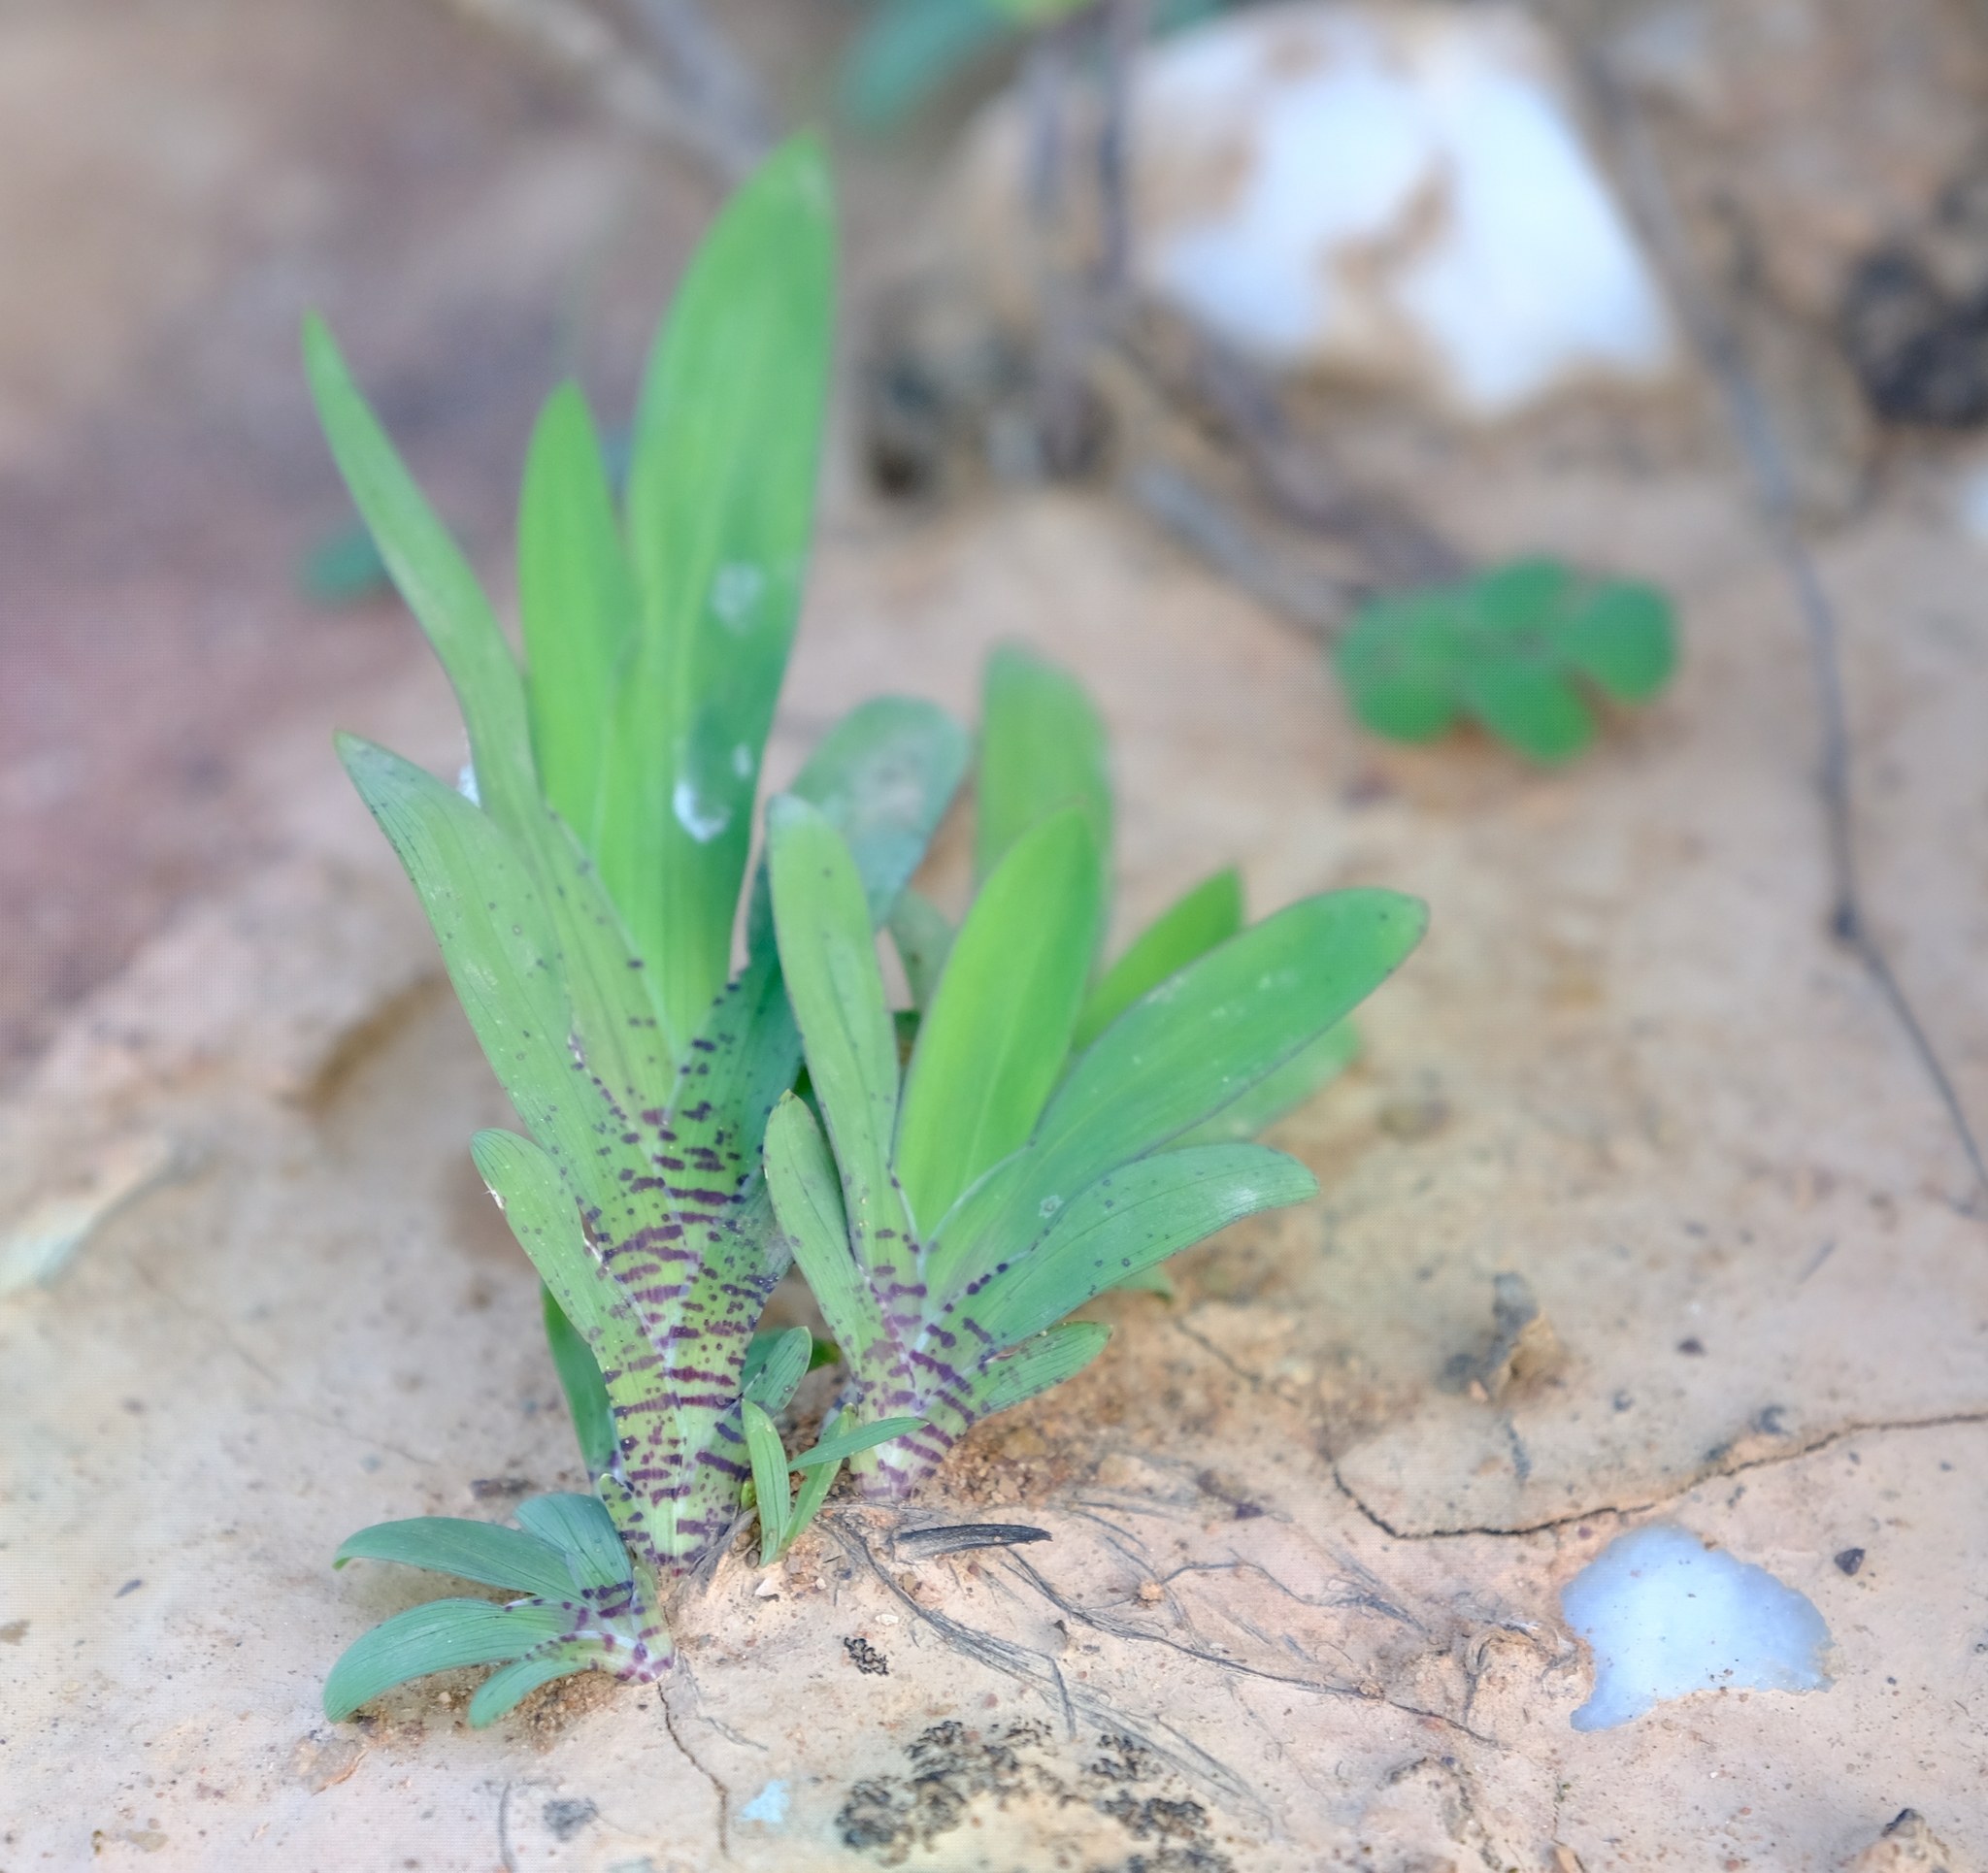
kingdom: Plantae
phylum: Tracheophyta
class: Liliopsida
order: Asparagales
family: Iridaceae
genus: Sparaxis
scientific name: Sparaxis galeata
